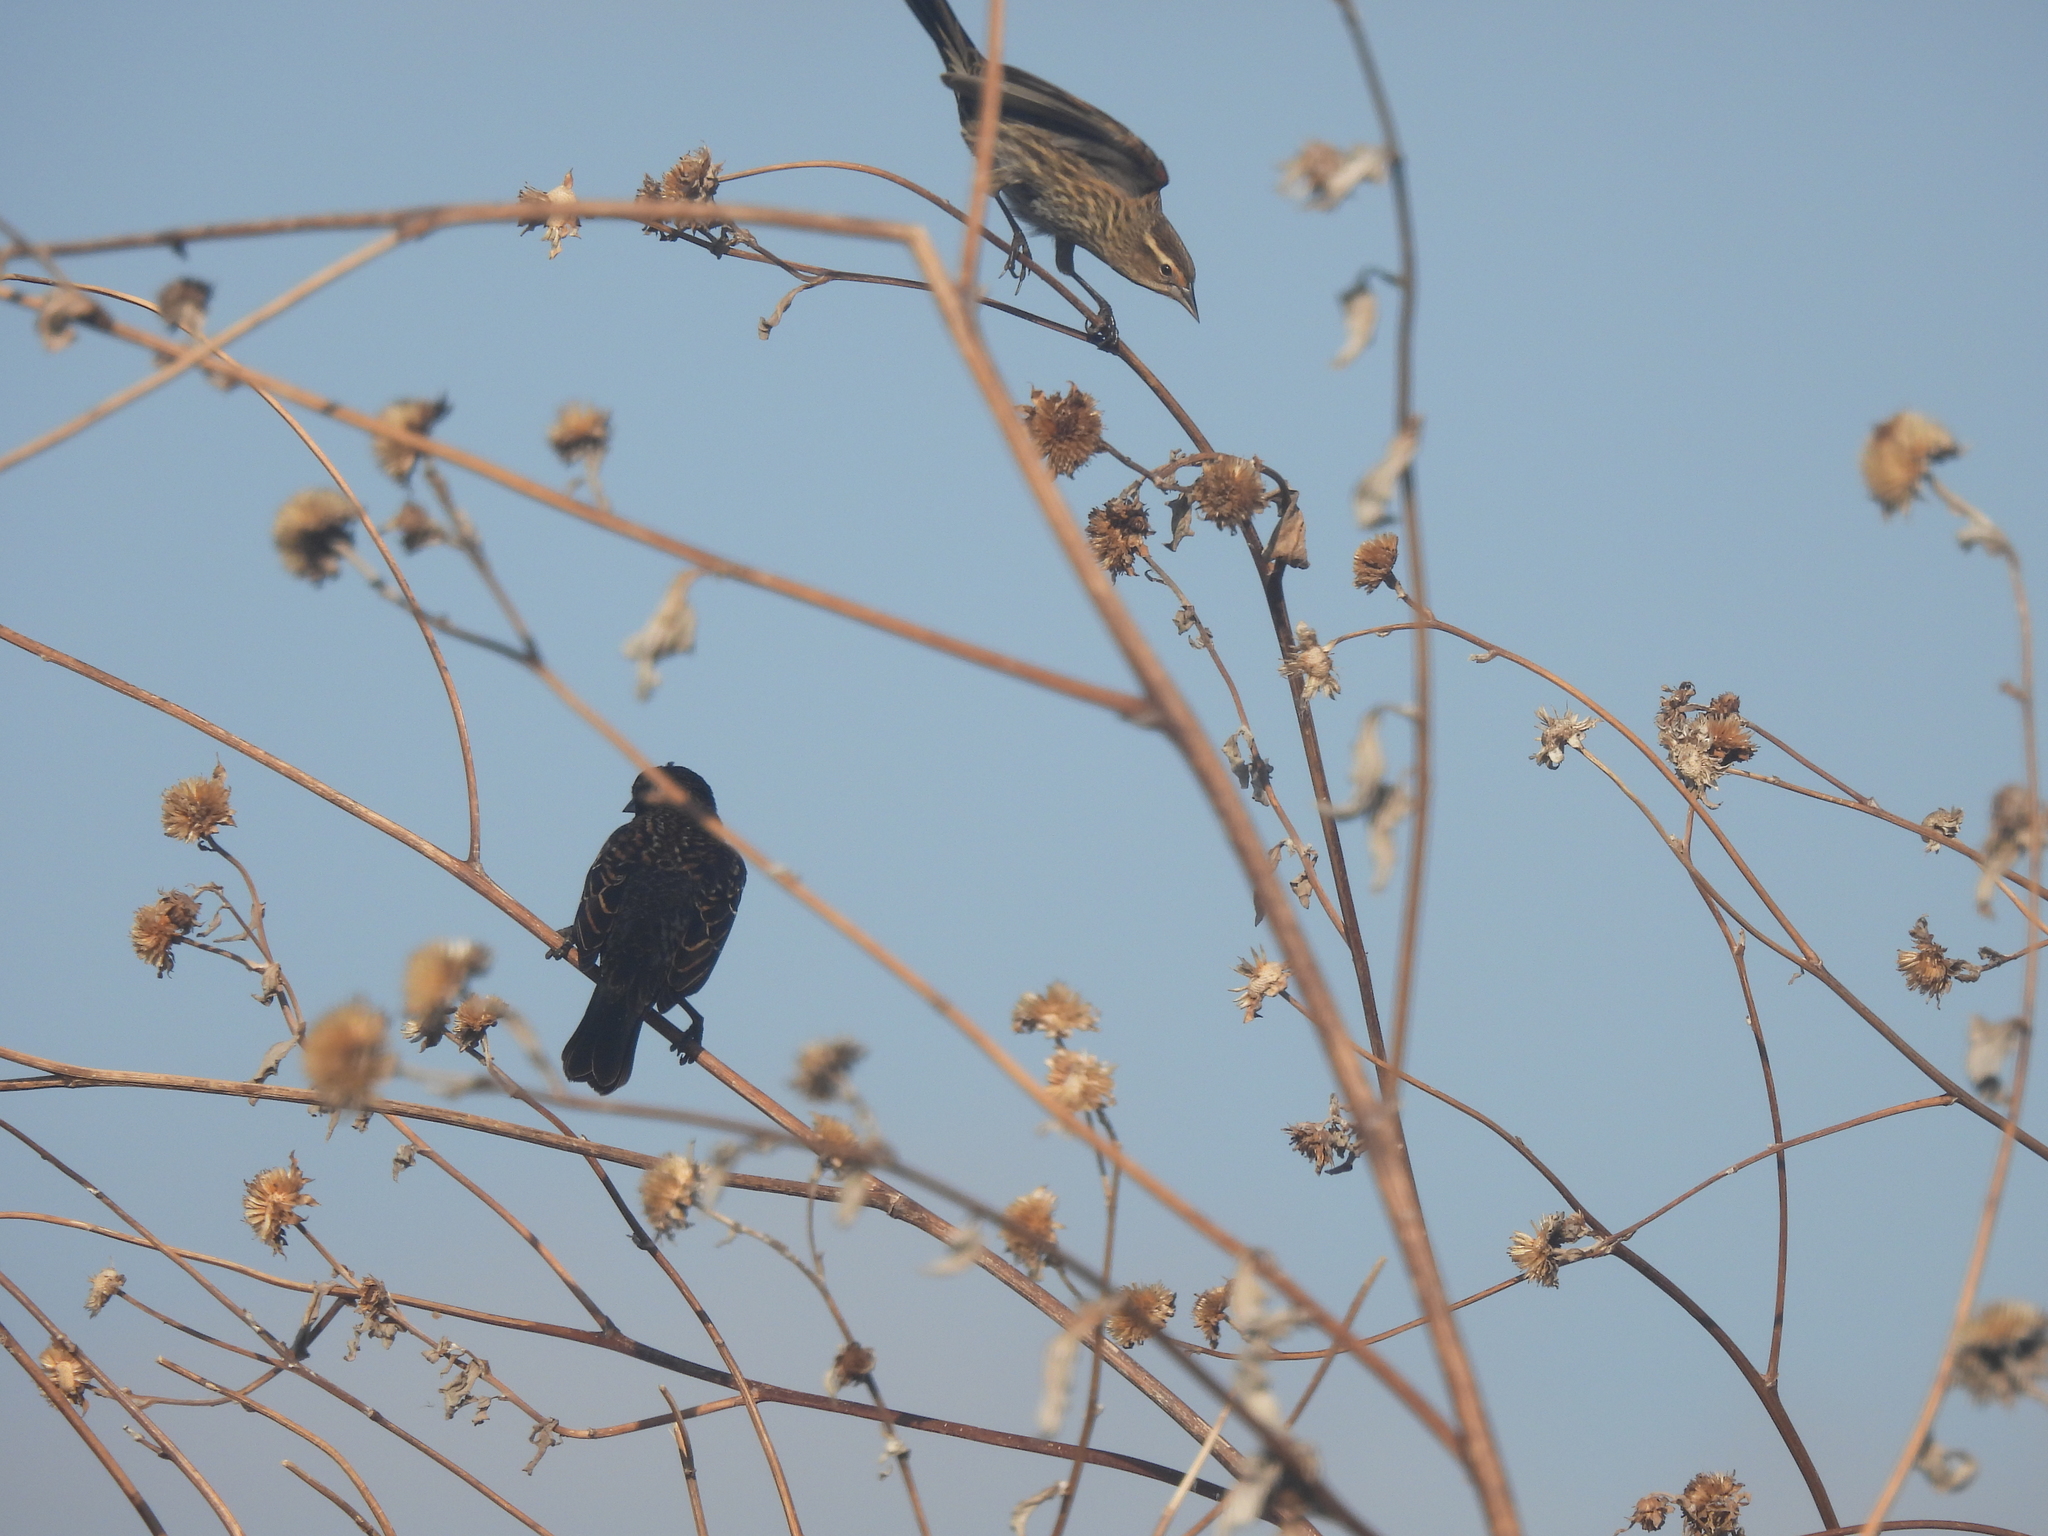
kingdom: Animalia
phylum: Chordata
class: Aves
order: Passeriformes
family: Icteridae
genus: Agelaius
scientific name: Agelaius phoeniceus
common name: Red-winged blackbird
